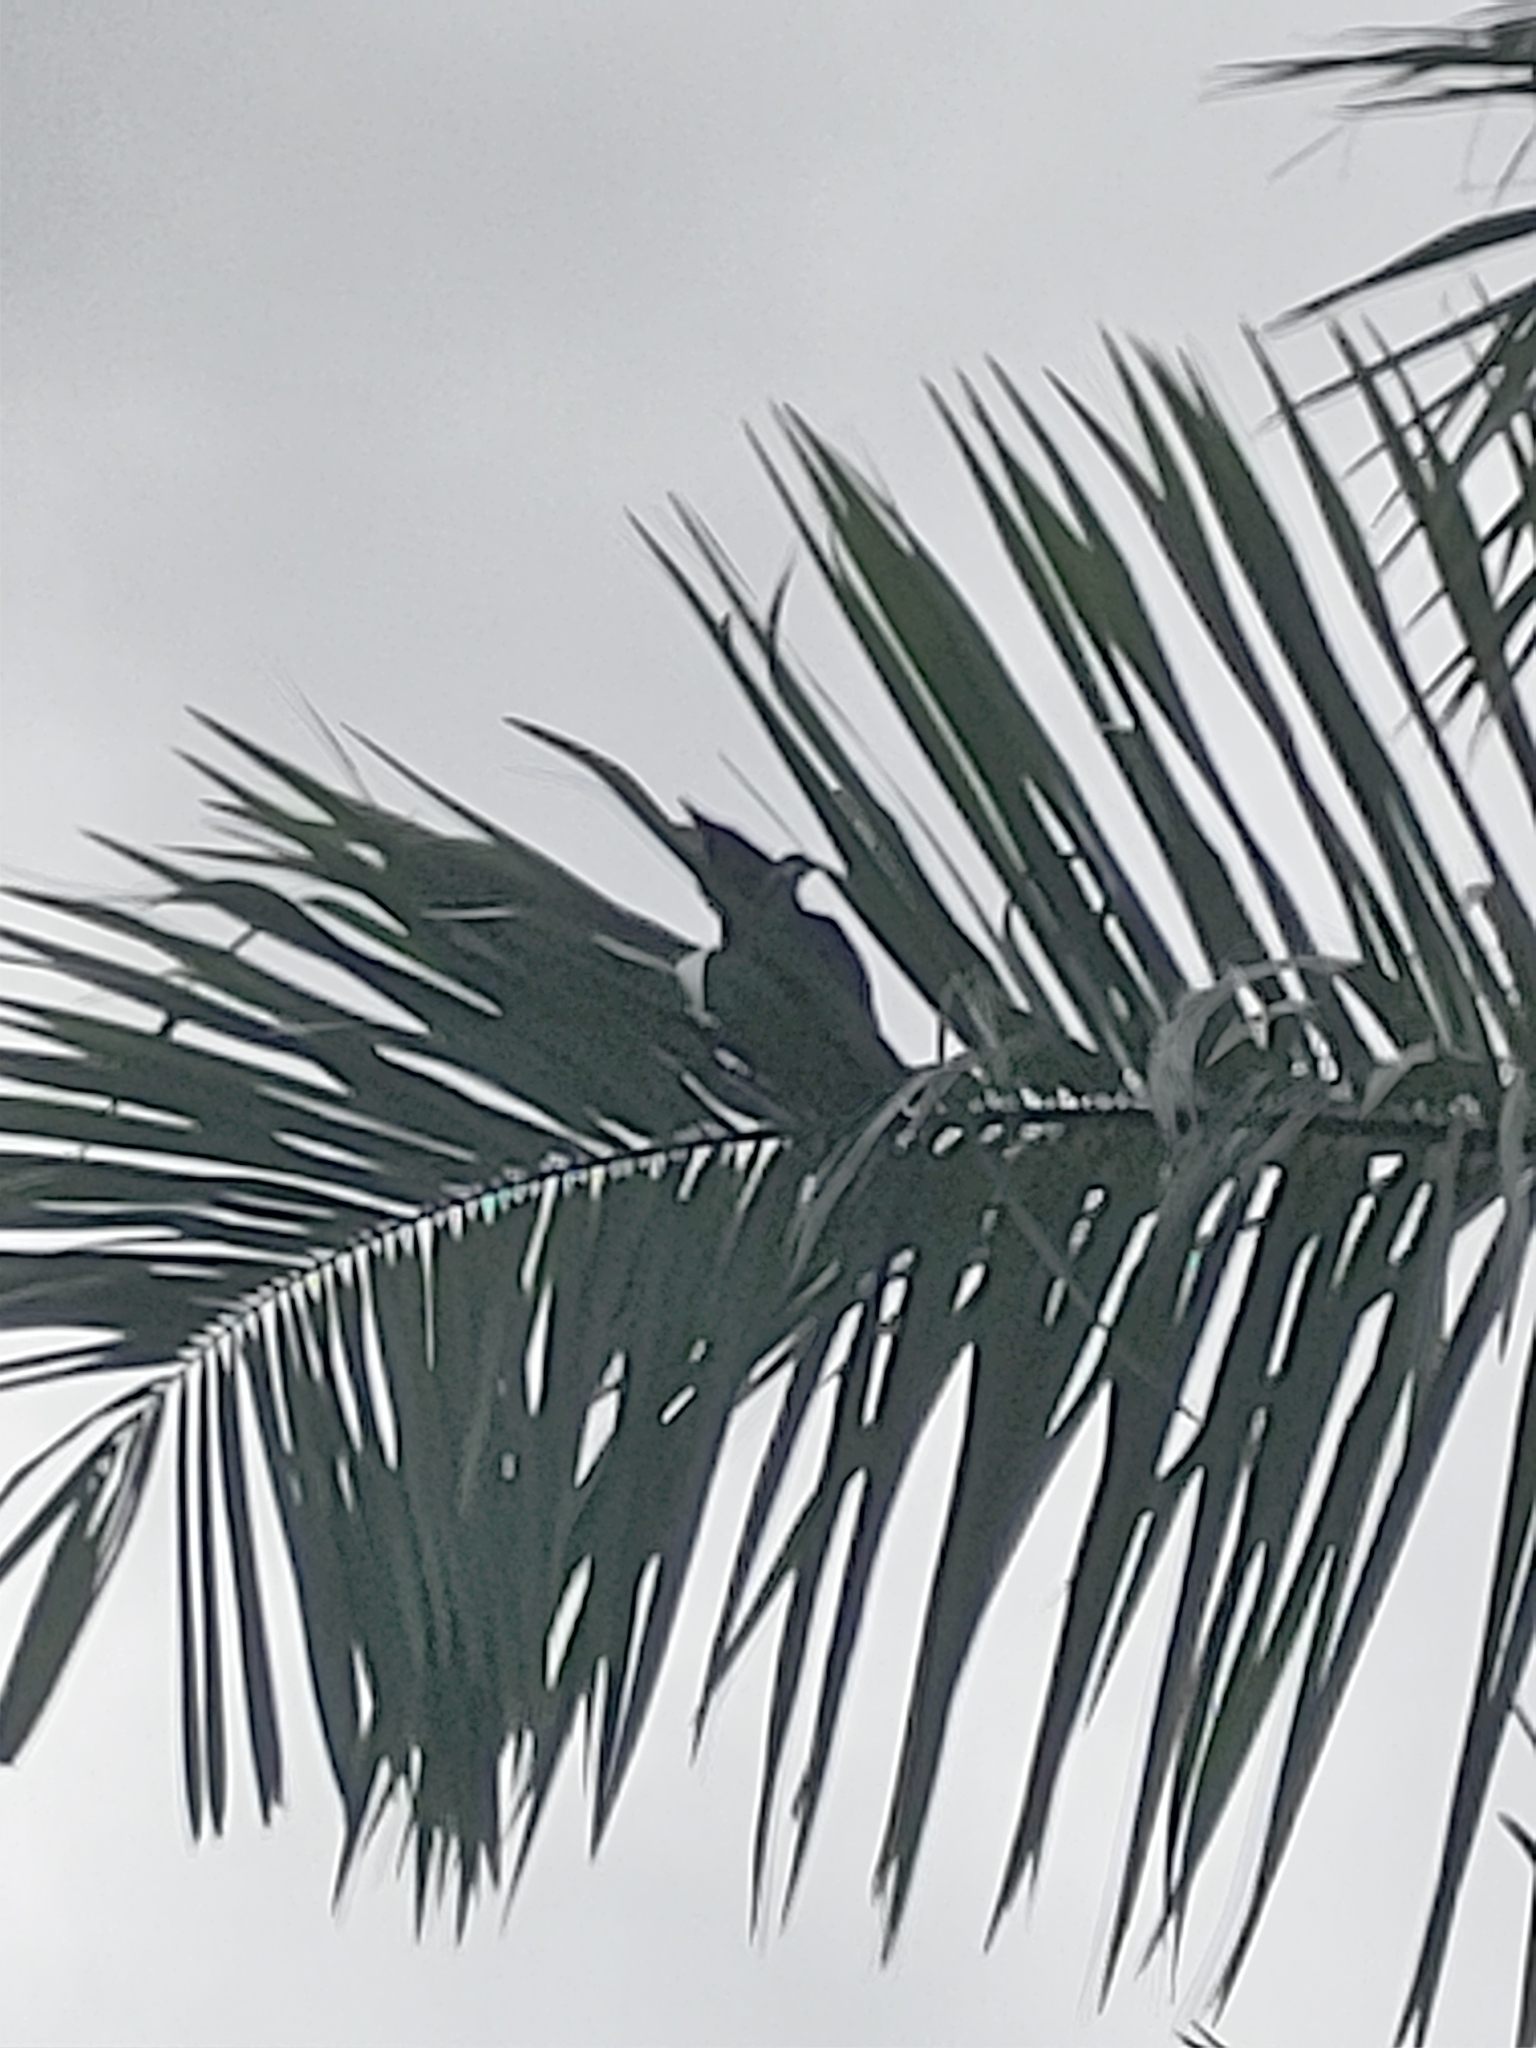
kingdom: Animalia
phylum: Chordata
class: Aves
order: Passeriformes
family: Corvidae
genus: Corvus
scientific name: Corvus ossifragus
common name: Fish crow
